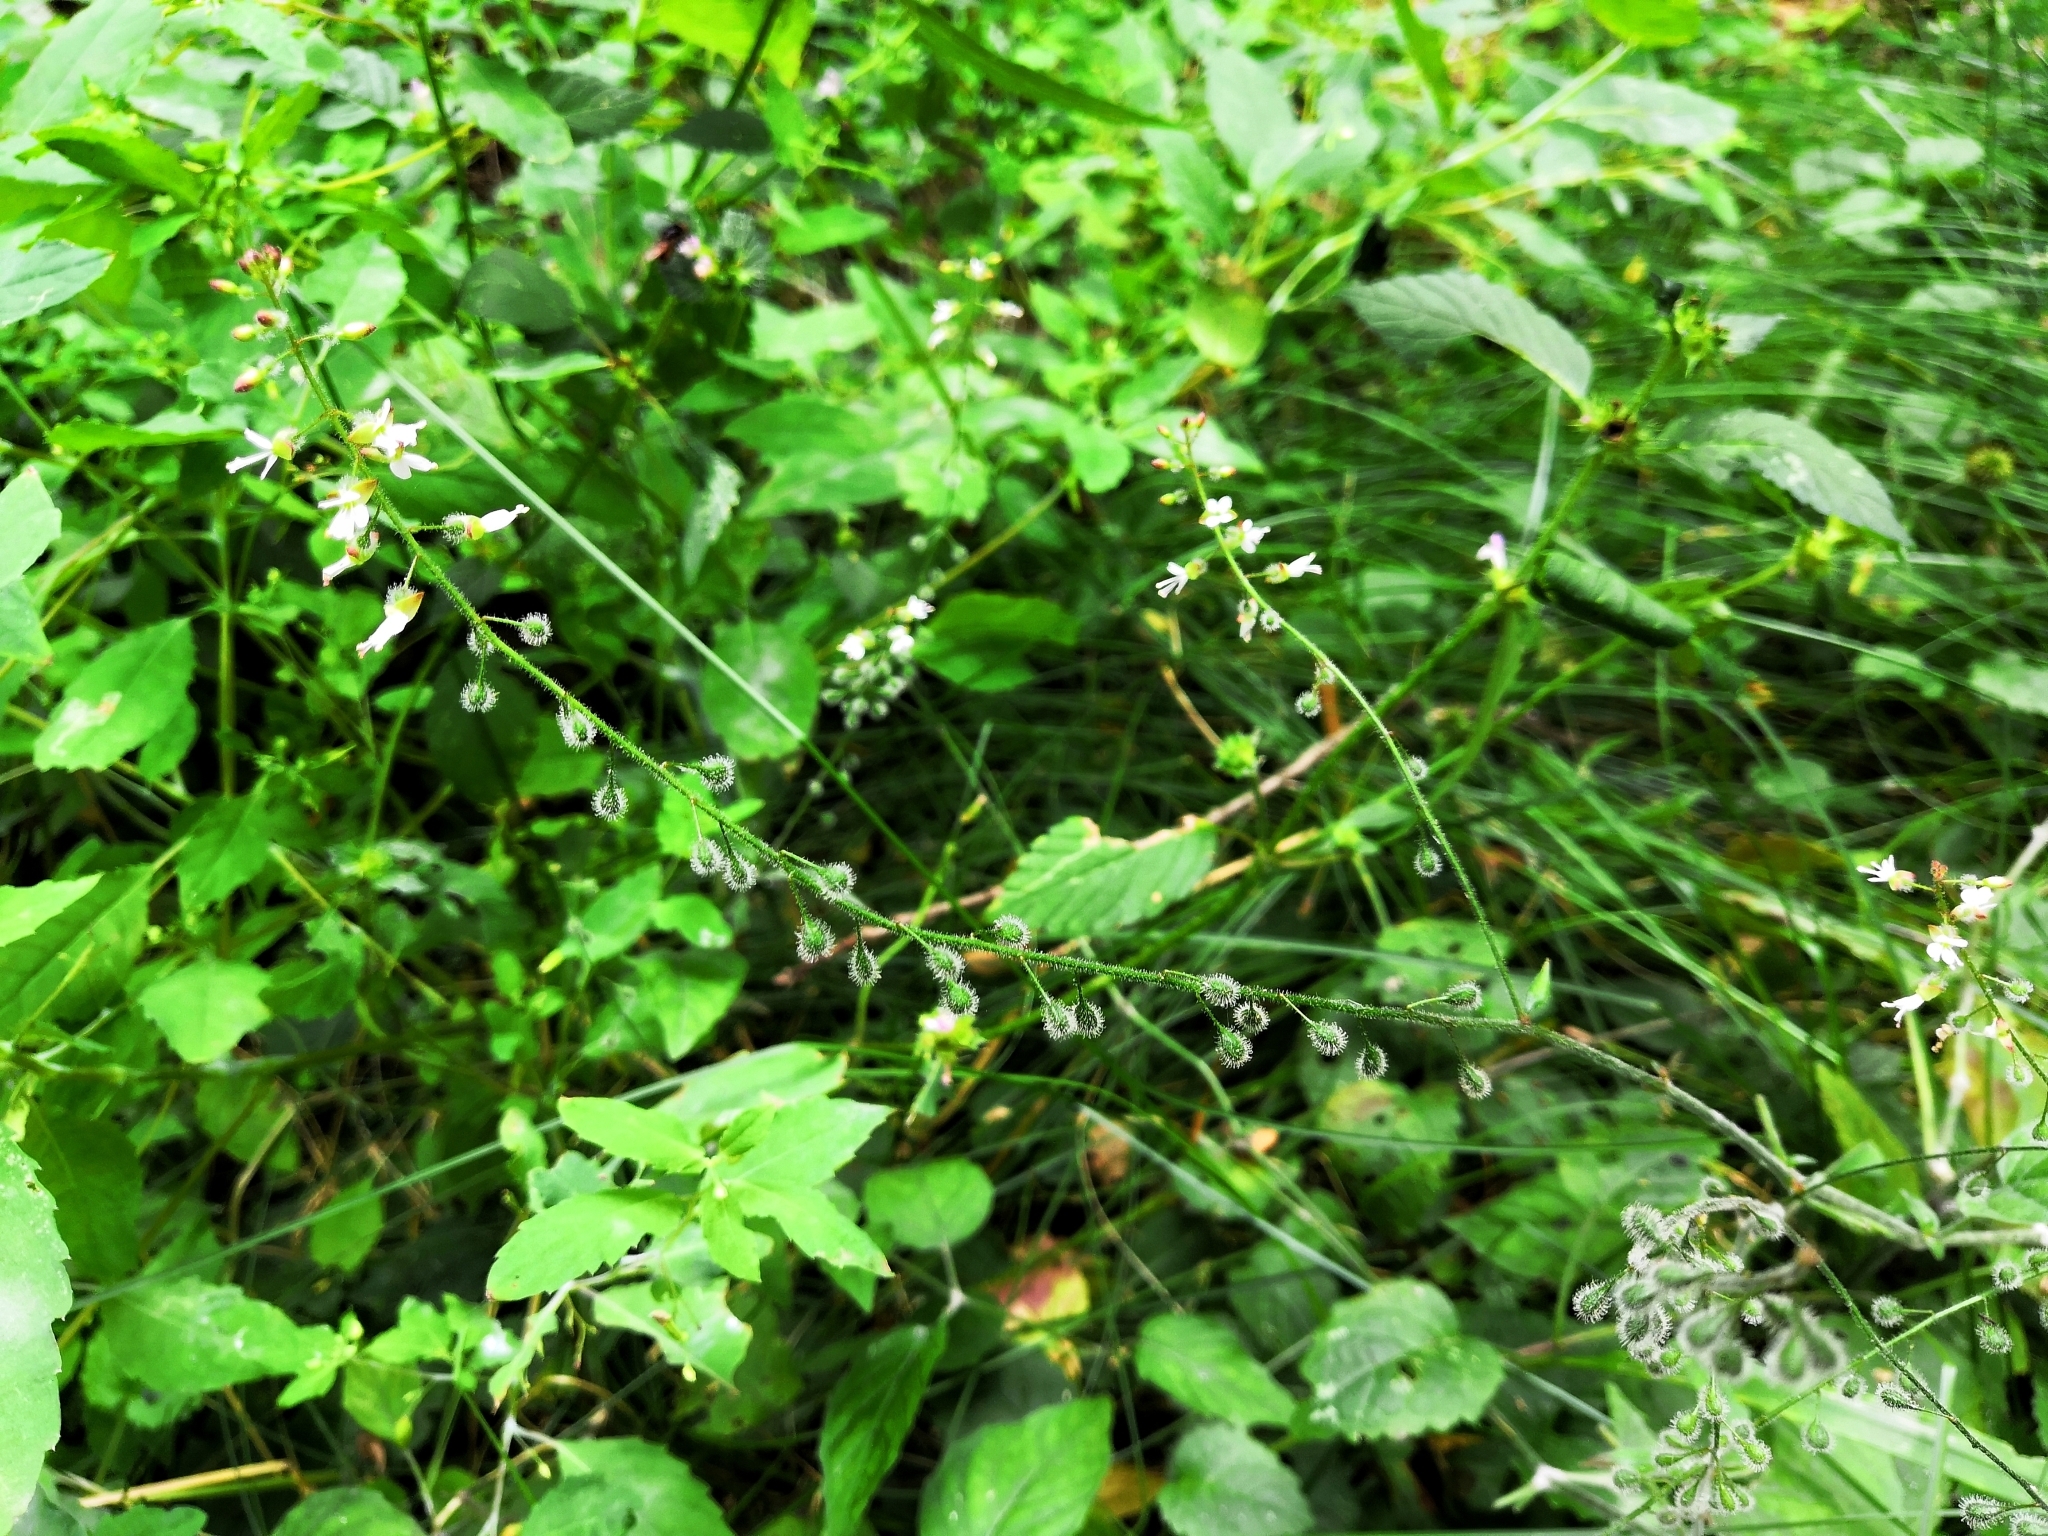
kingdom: Plantae
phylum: Tracheophyta
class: Magnoliopsida
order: Myrtales
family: Onagraceae
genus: Circaea
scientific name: Circaea lutetiana
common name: Enchanter's-nightshade
